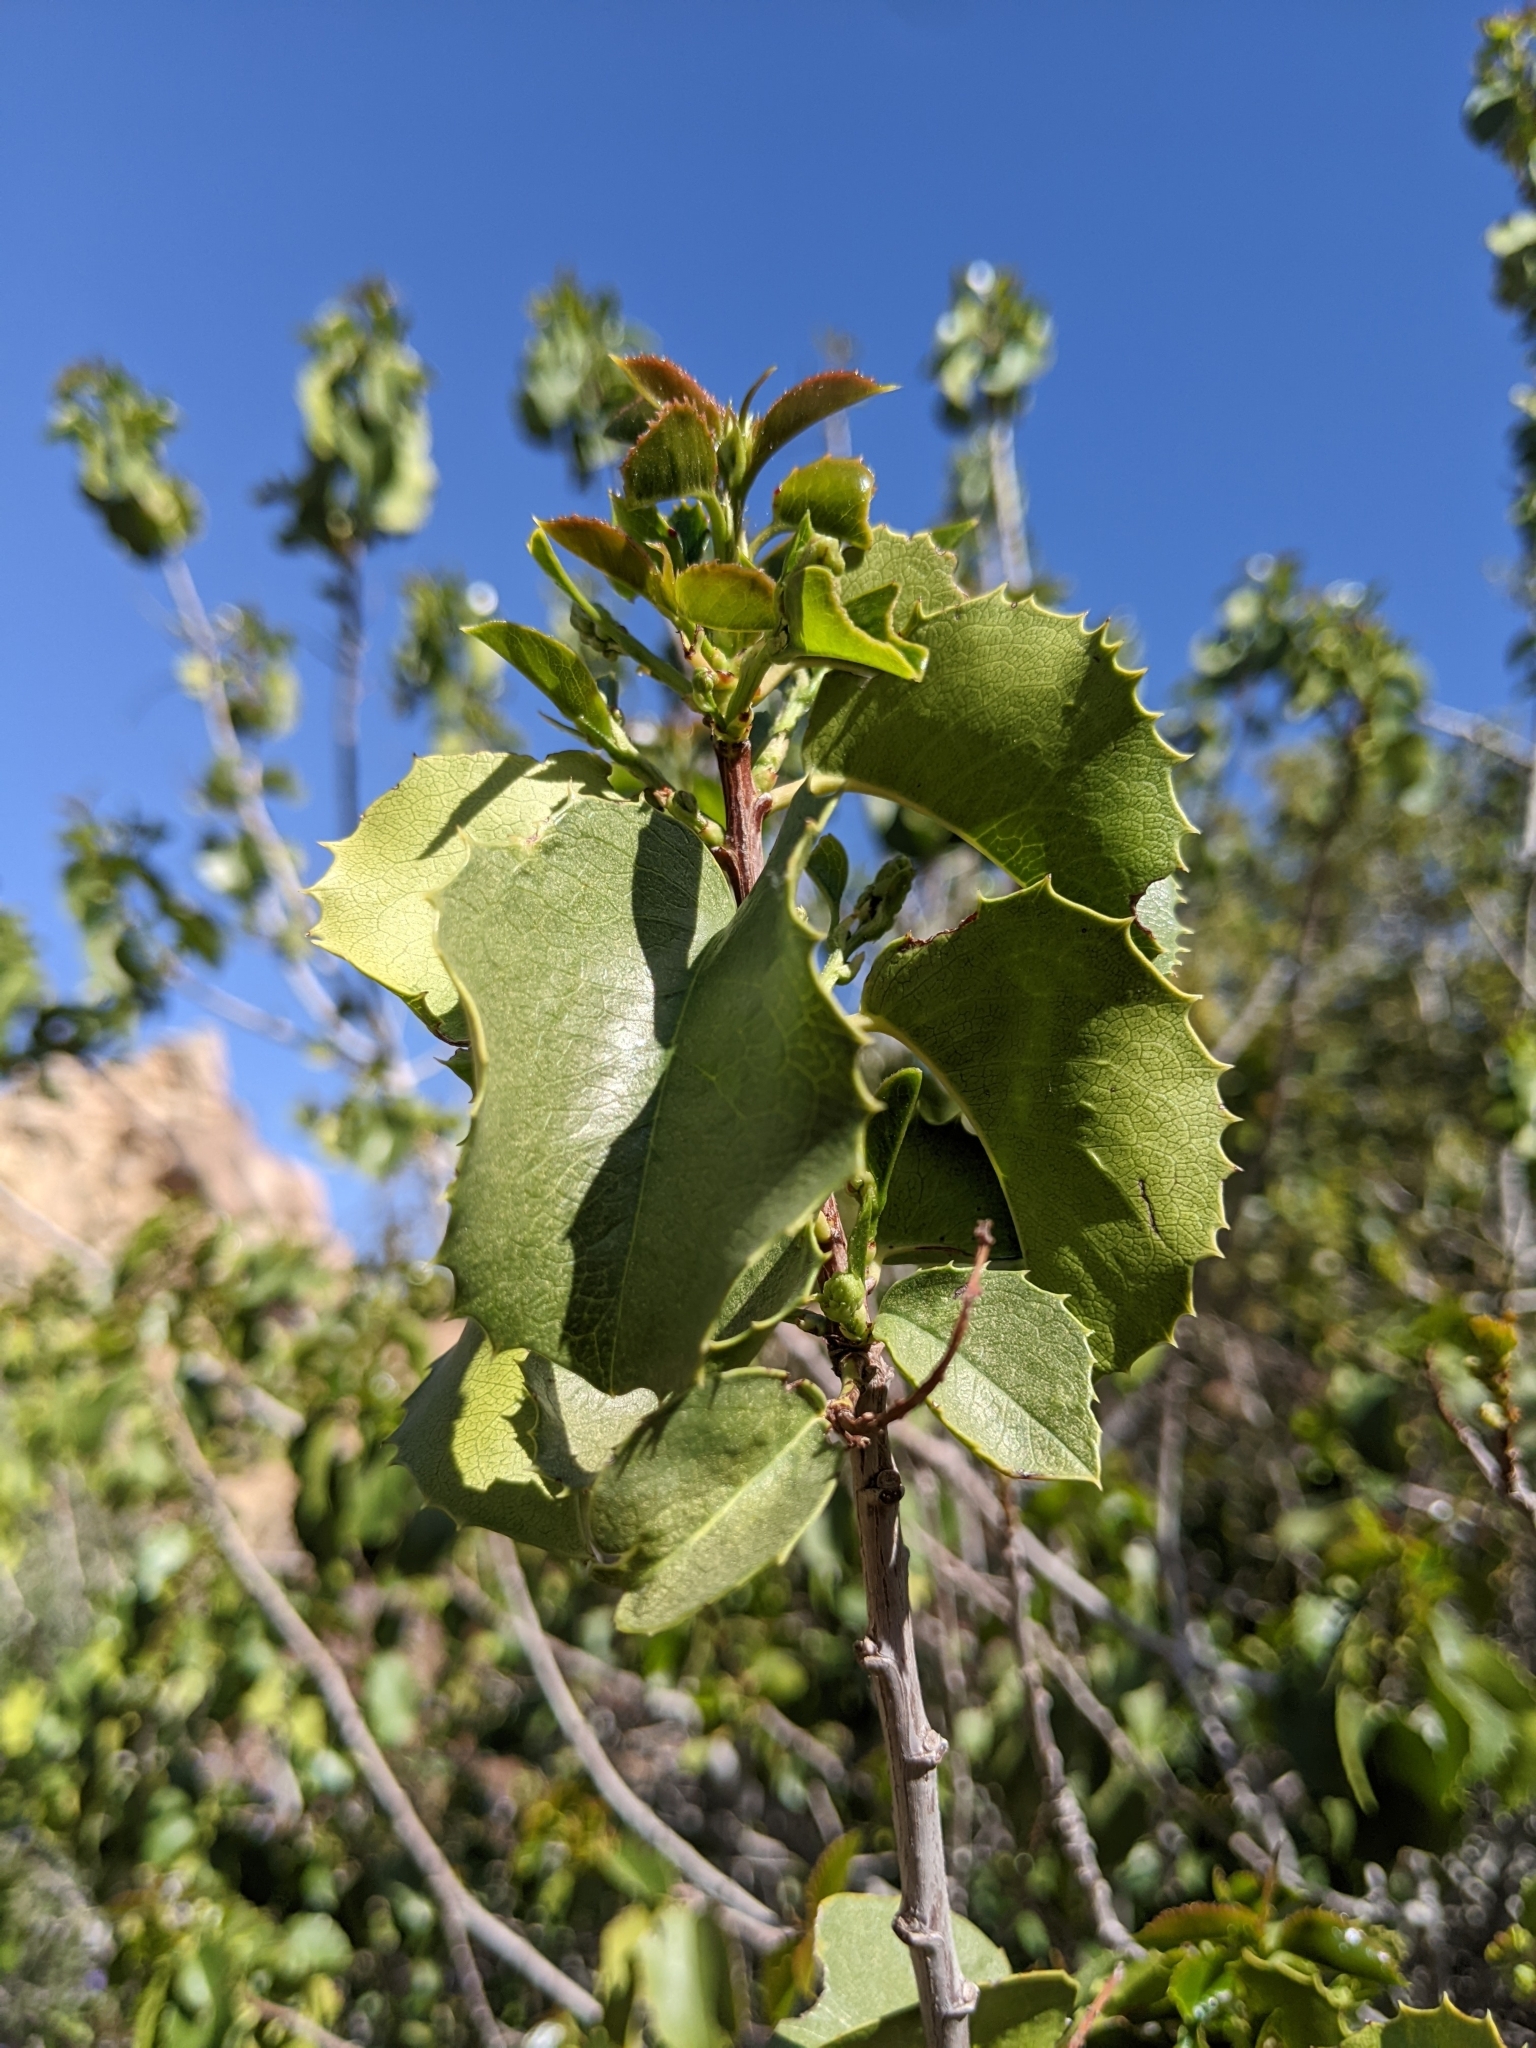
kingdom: Plantae
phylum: Tracheophyta
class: Magnoliopsida
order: Rosales
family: Rosaceae
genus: Prunus
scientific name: Prunus ilicifolia
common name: Hollyleaf cherry
